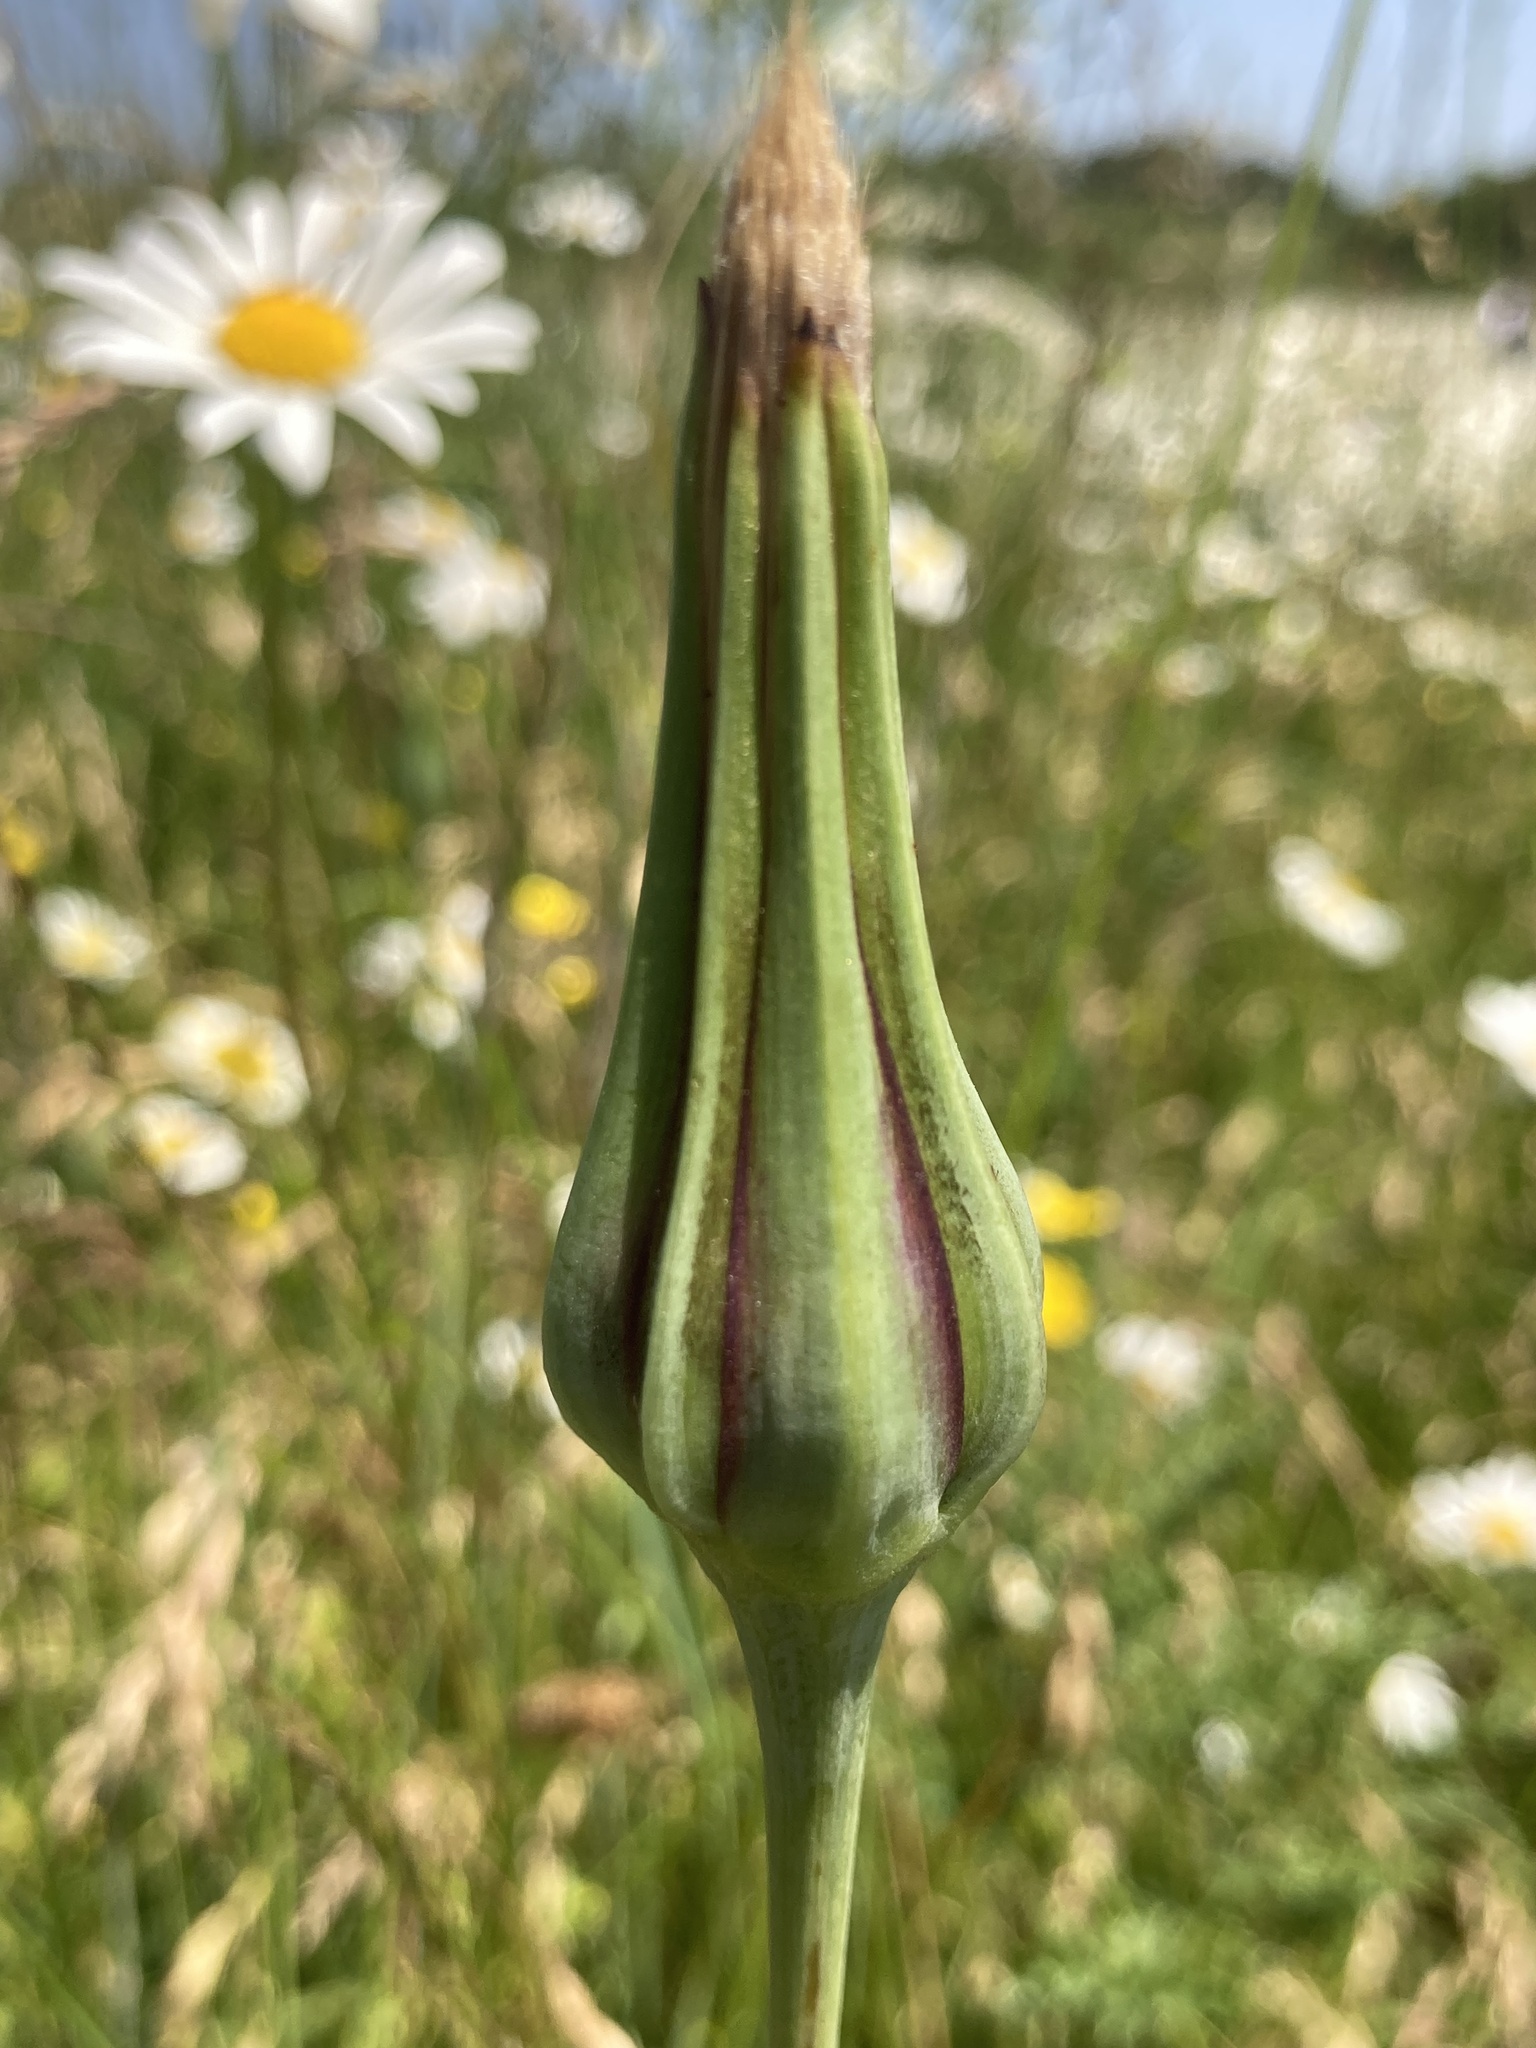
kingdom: Plantae
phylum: Tracheophyta
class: Magnoliopsida
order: Asterales
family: Asteraceae
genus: Tragopogon
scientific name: Tragopogon pratensis
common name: Goat's-beard
